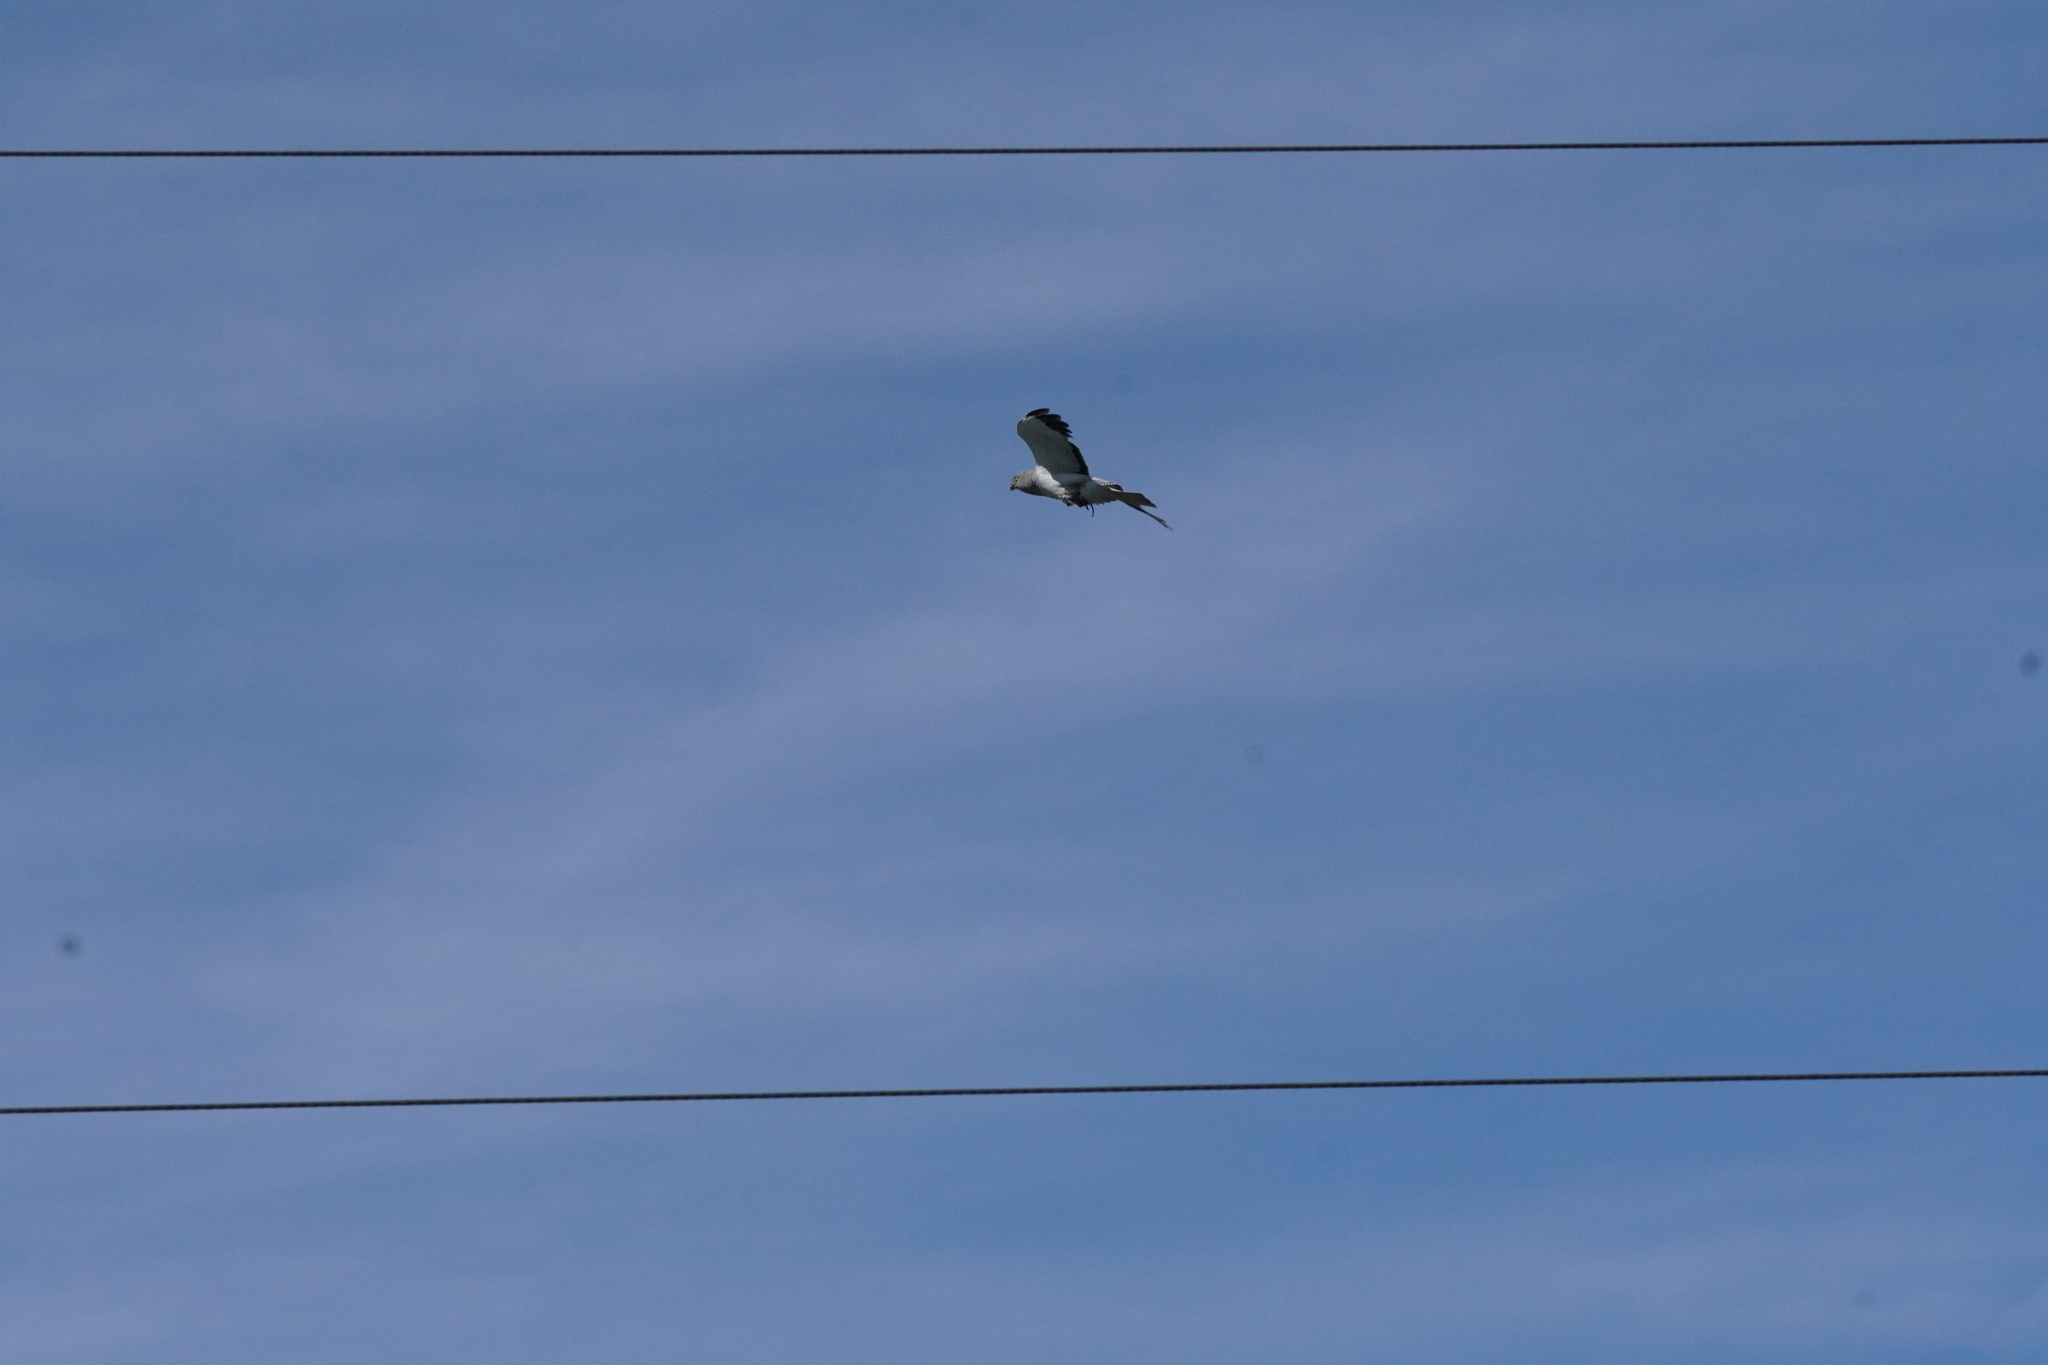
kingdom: Animalia
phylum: Chordata
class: Aves
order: Accipitriformes
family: Accipitridae
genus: Circus
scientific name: Circus cyaneus
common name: Hen harrier
